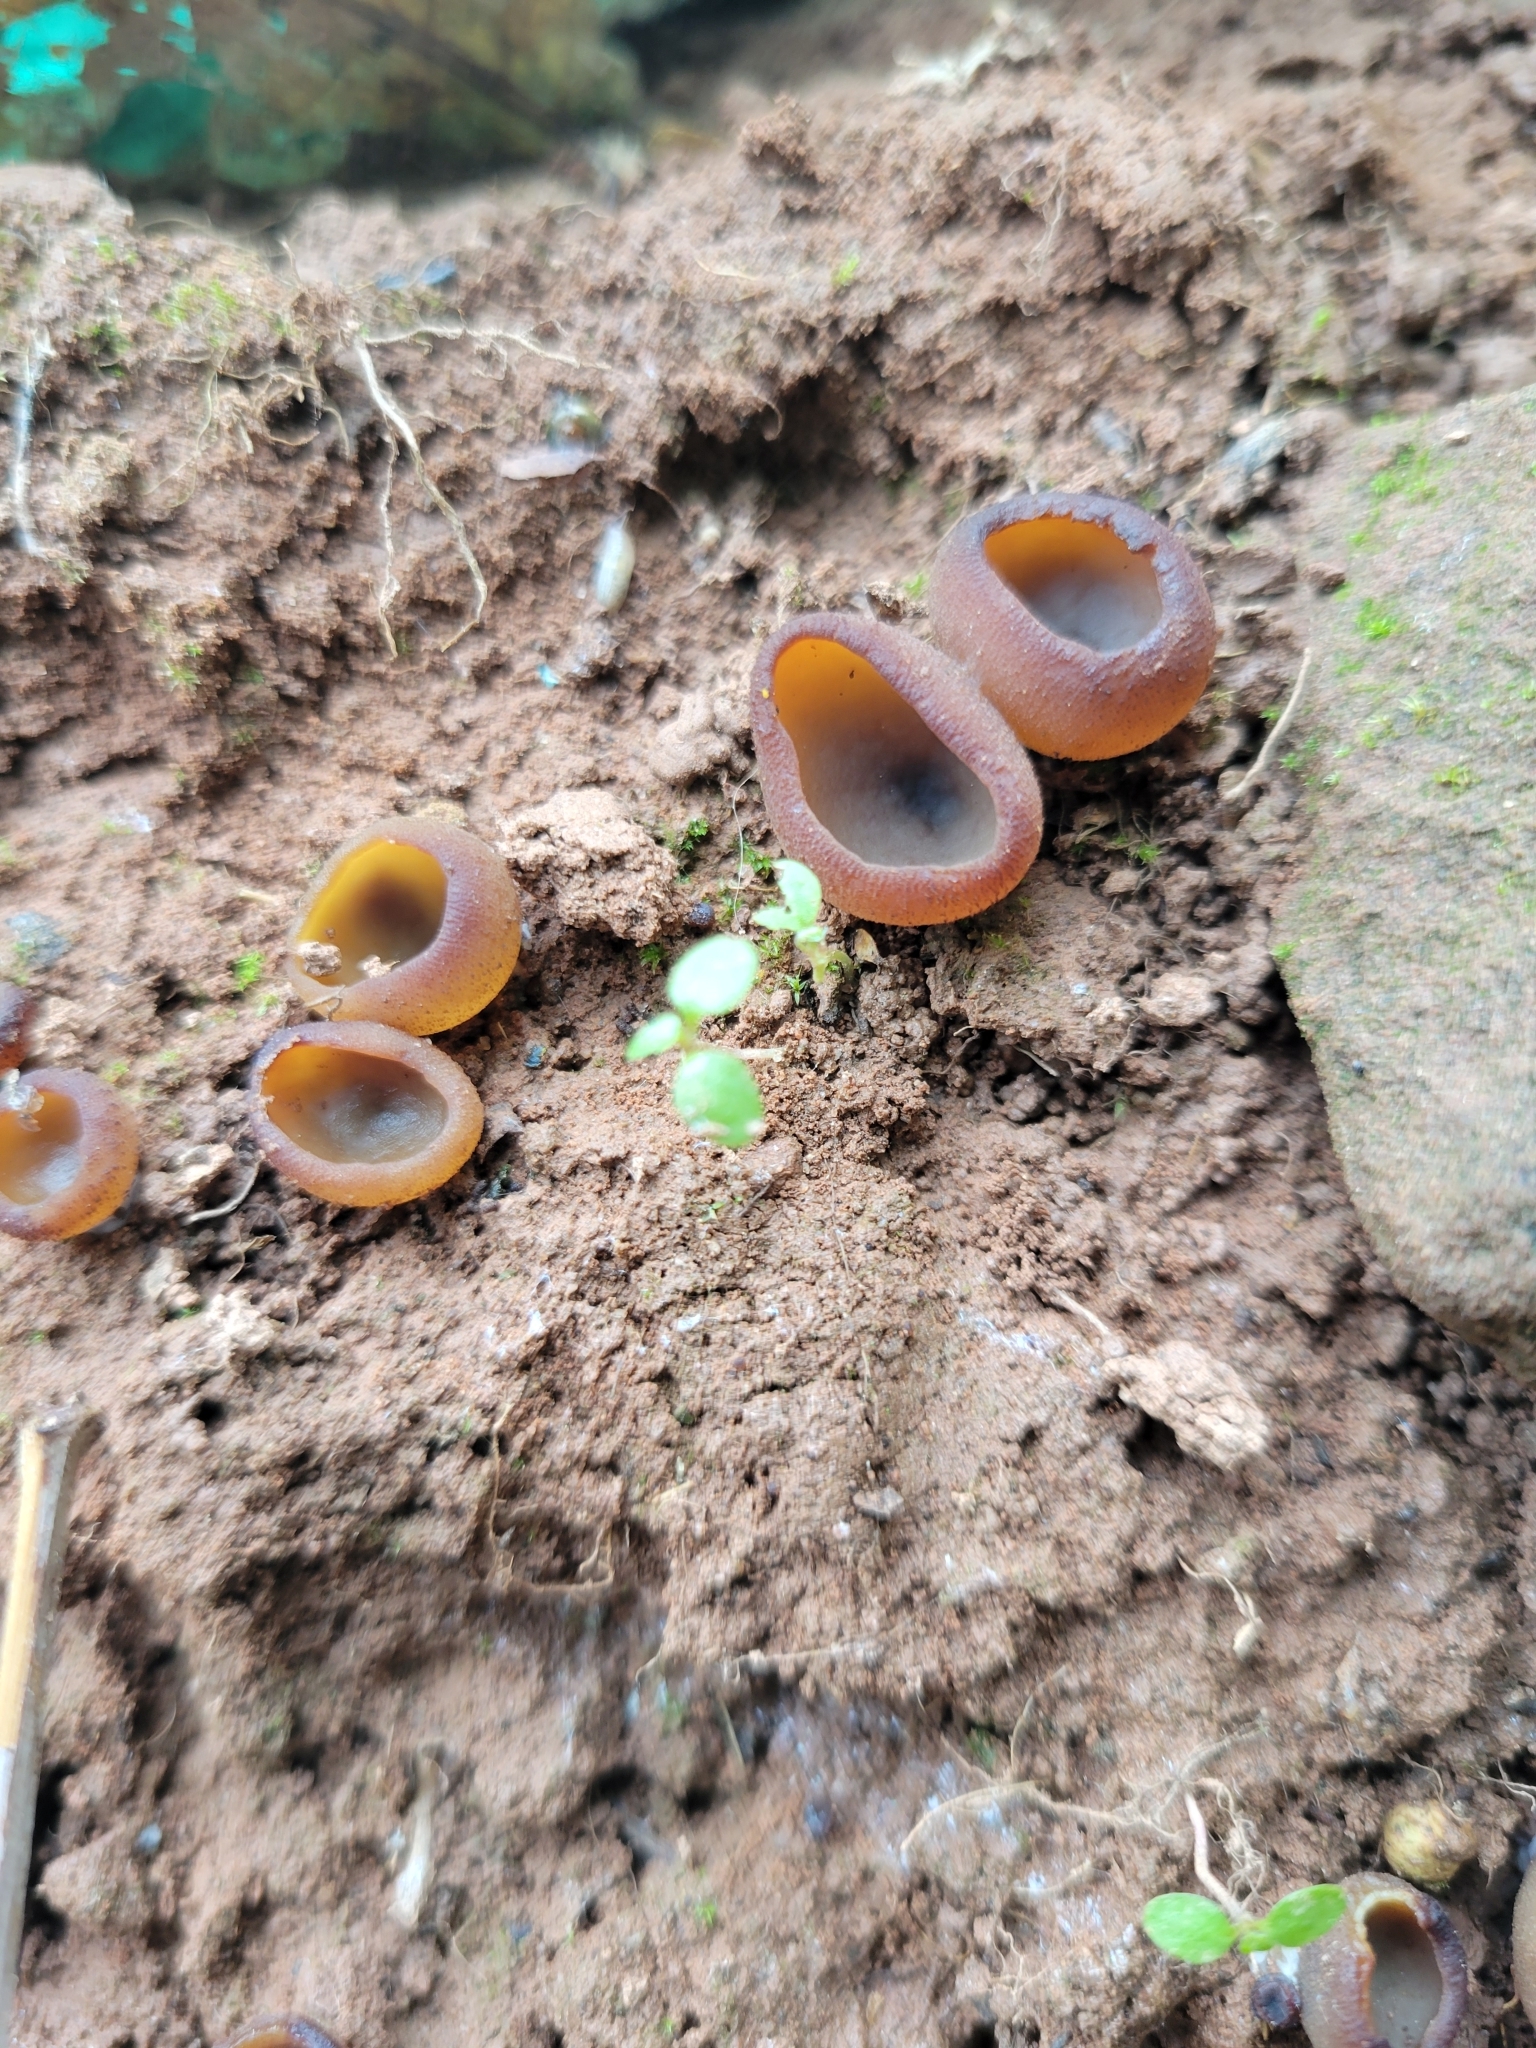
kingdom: Fungi
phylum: Ascomycota
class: Pezizomycetes
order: Pezizales
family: Pezizaceae
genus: Phylloscypha
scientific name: Phylloscypha phyllogena
